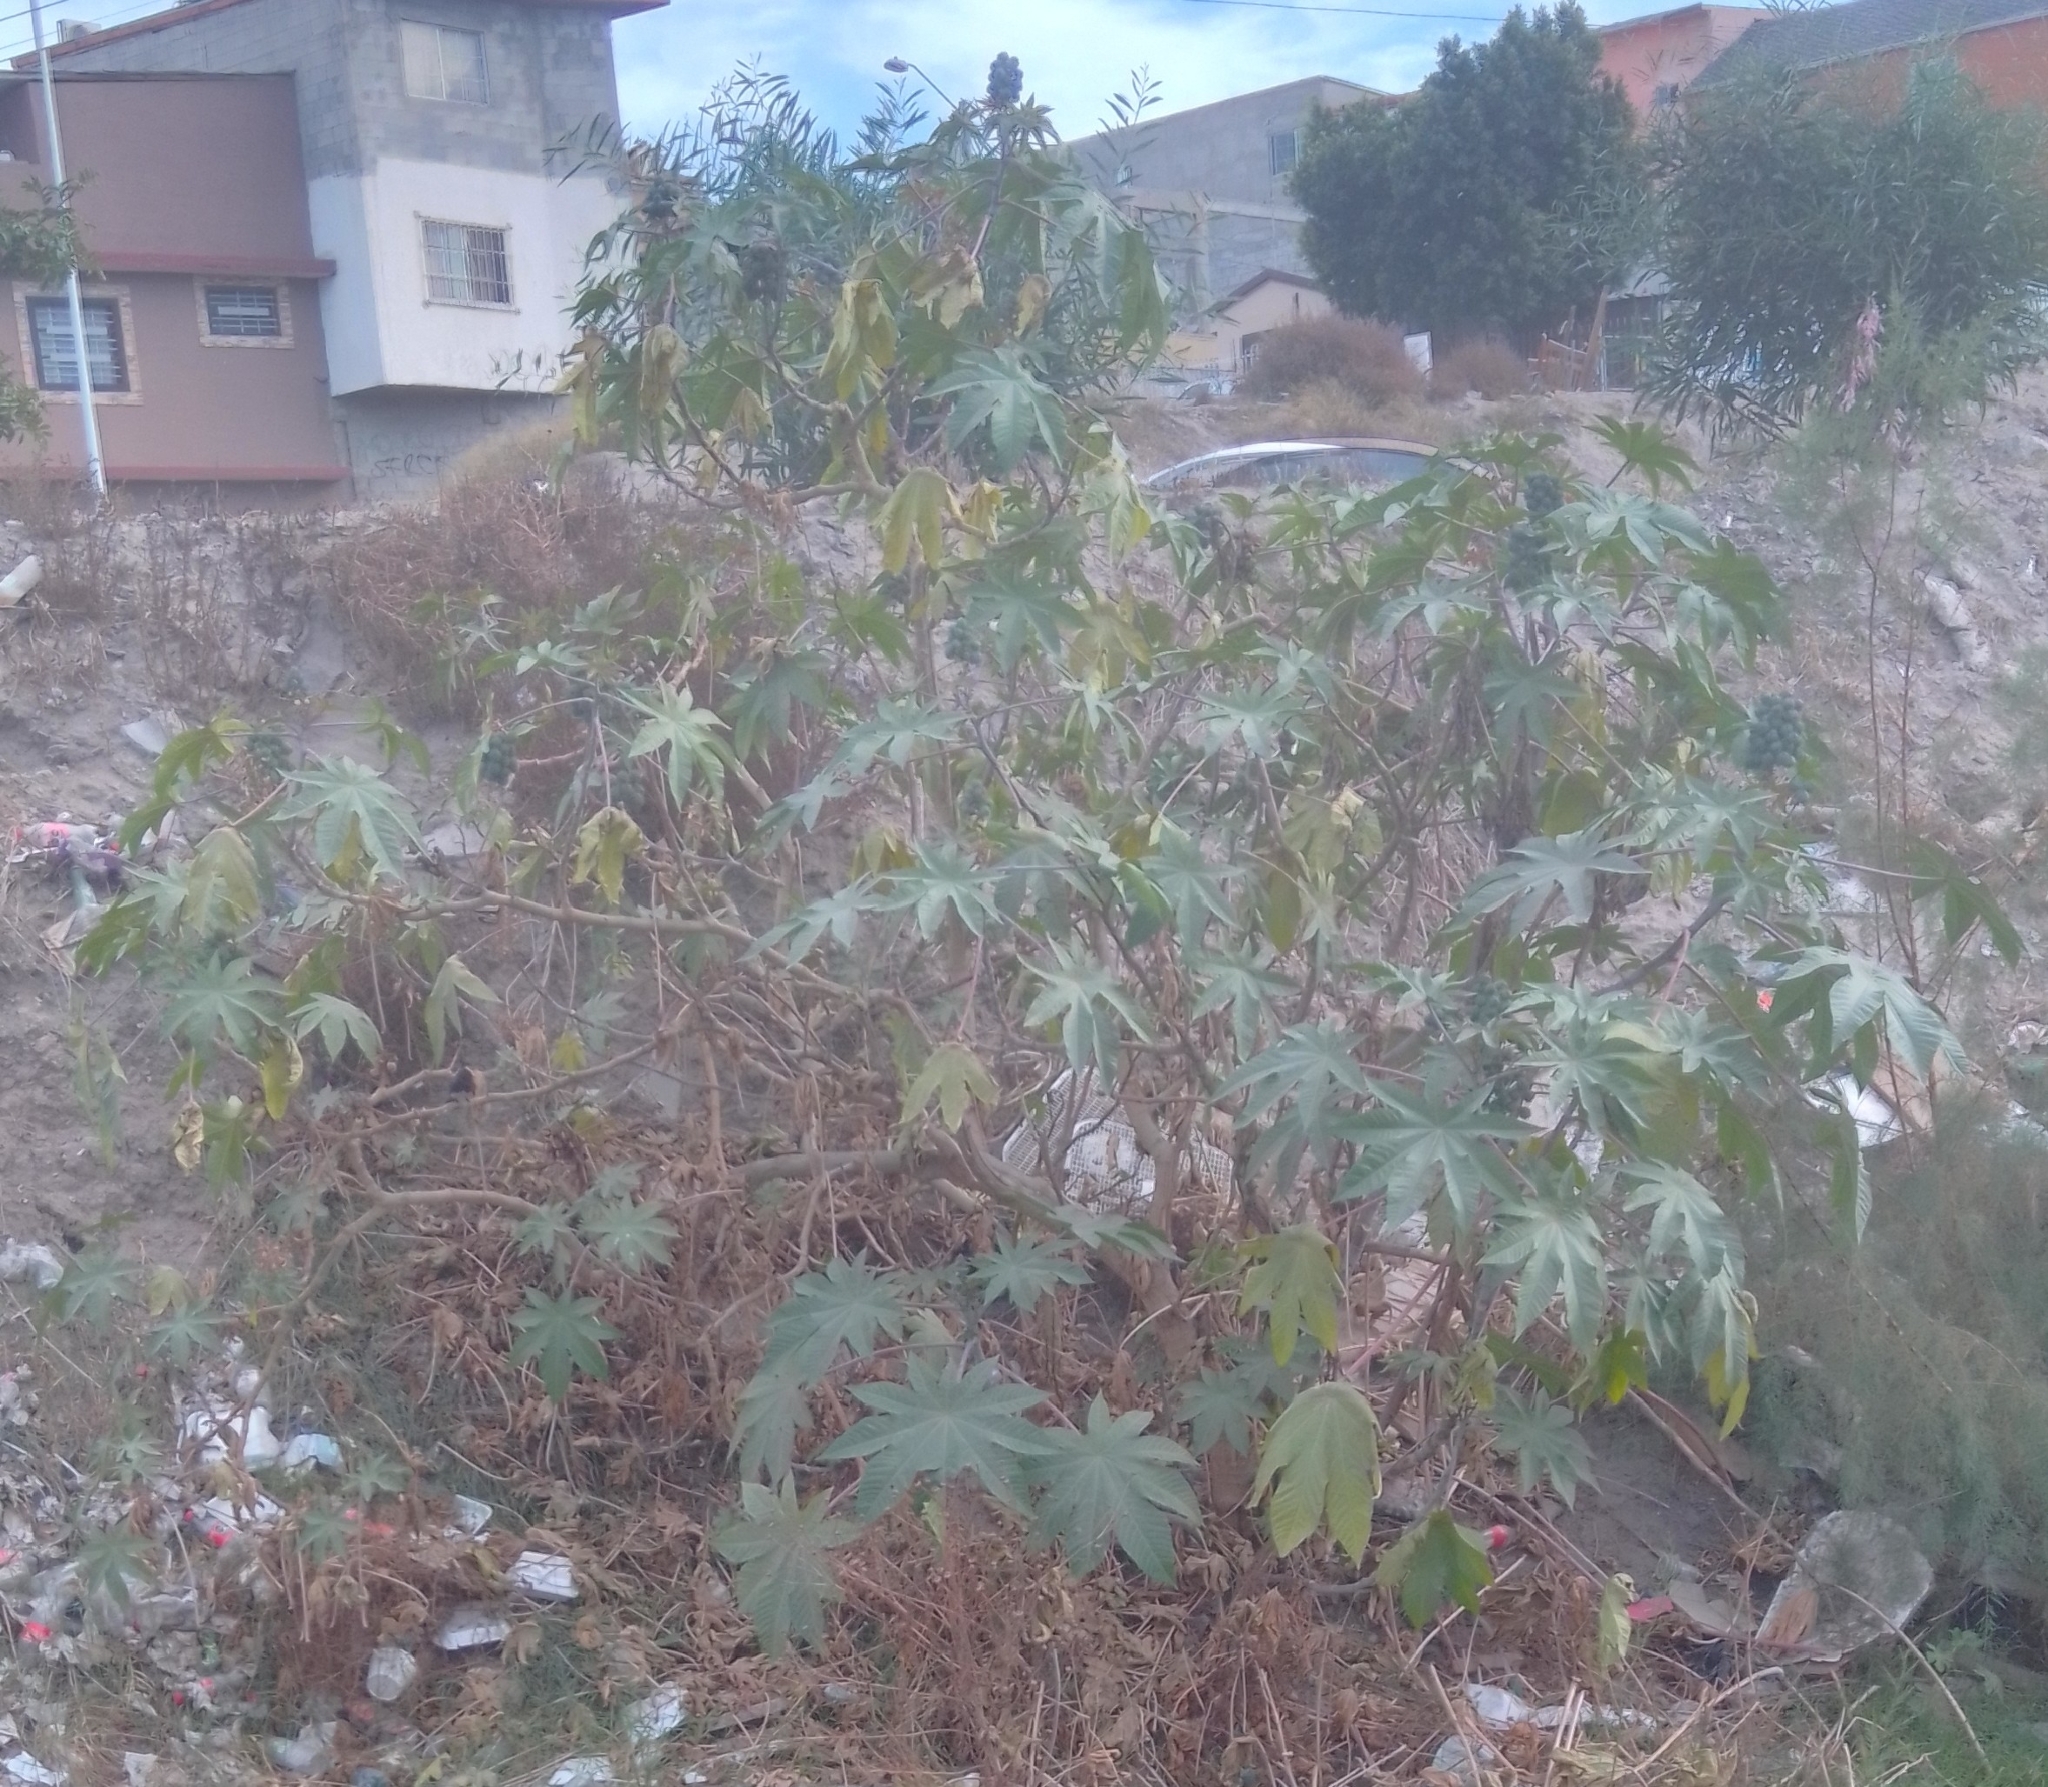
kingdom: Plantae
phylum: Tracheophyta
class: Magnoliopsida
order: Malpighiales
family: Euphorbiaceae
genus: Ricinus
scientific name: Ricinus communis
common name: Castor-oil-plant
